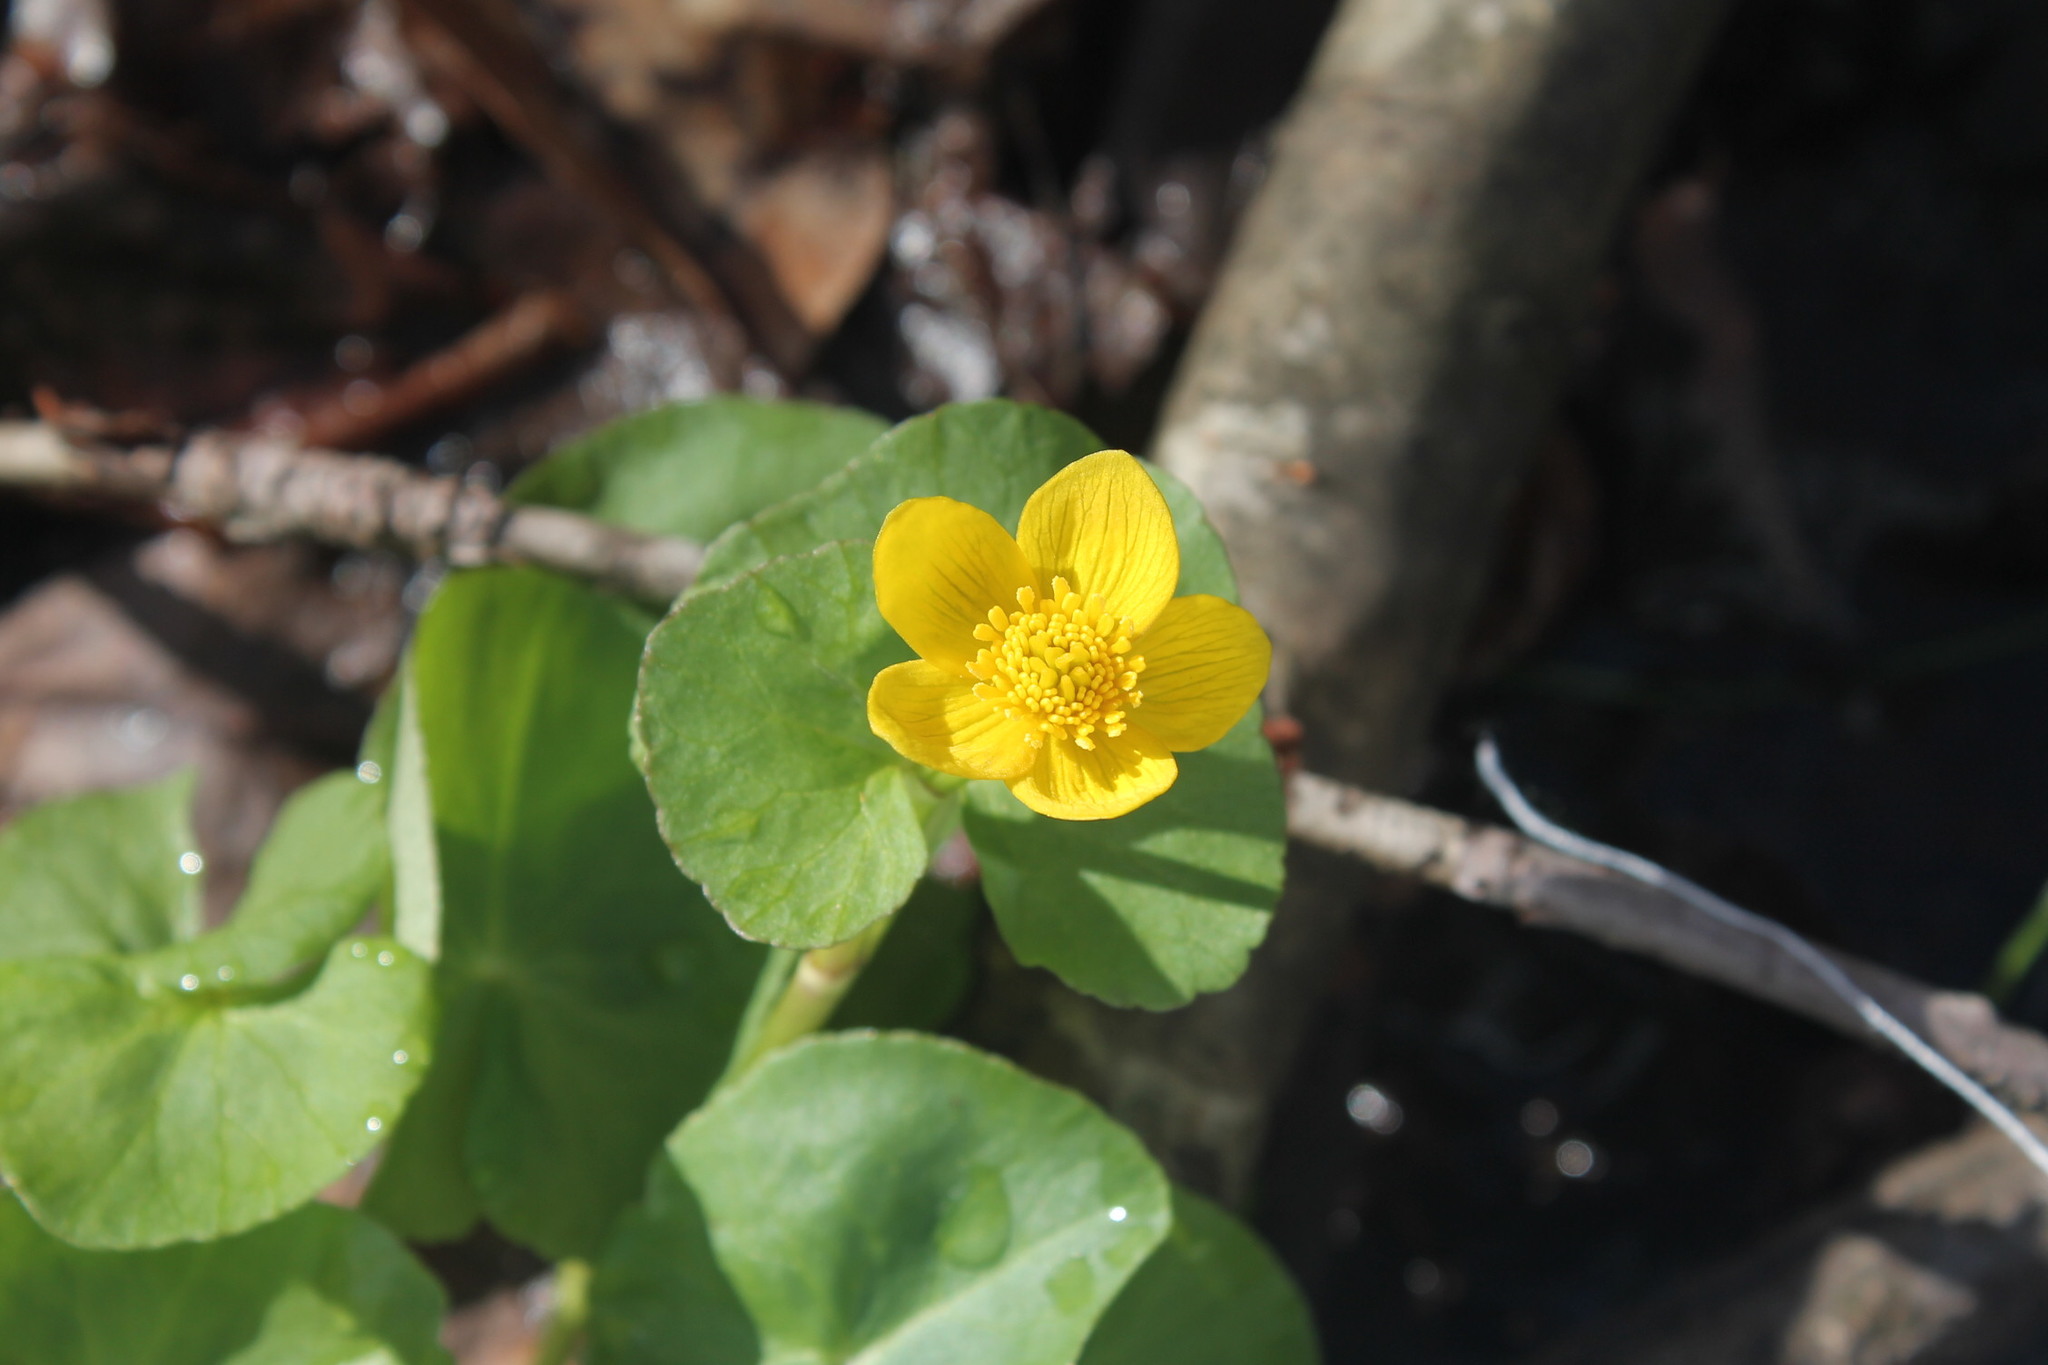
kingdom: Plantae
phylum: Tracheophyta
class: Magnoliopsida
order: Ranunculales
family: Ranunculaceae
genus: Caltha
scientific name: Caltha palustris
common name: Marsh marigold
